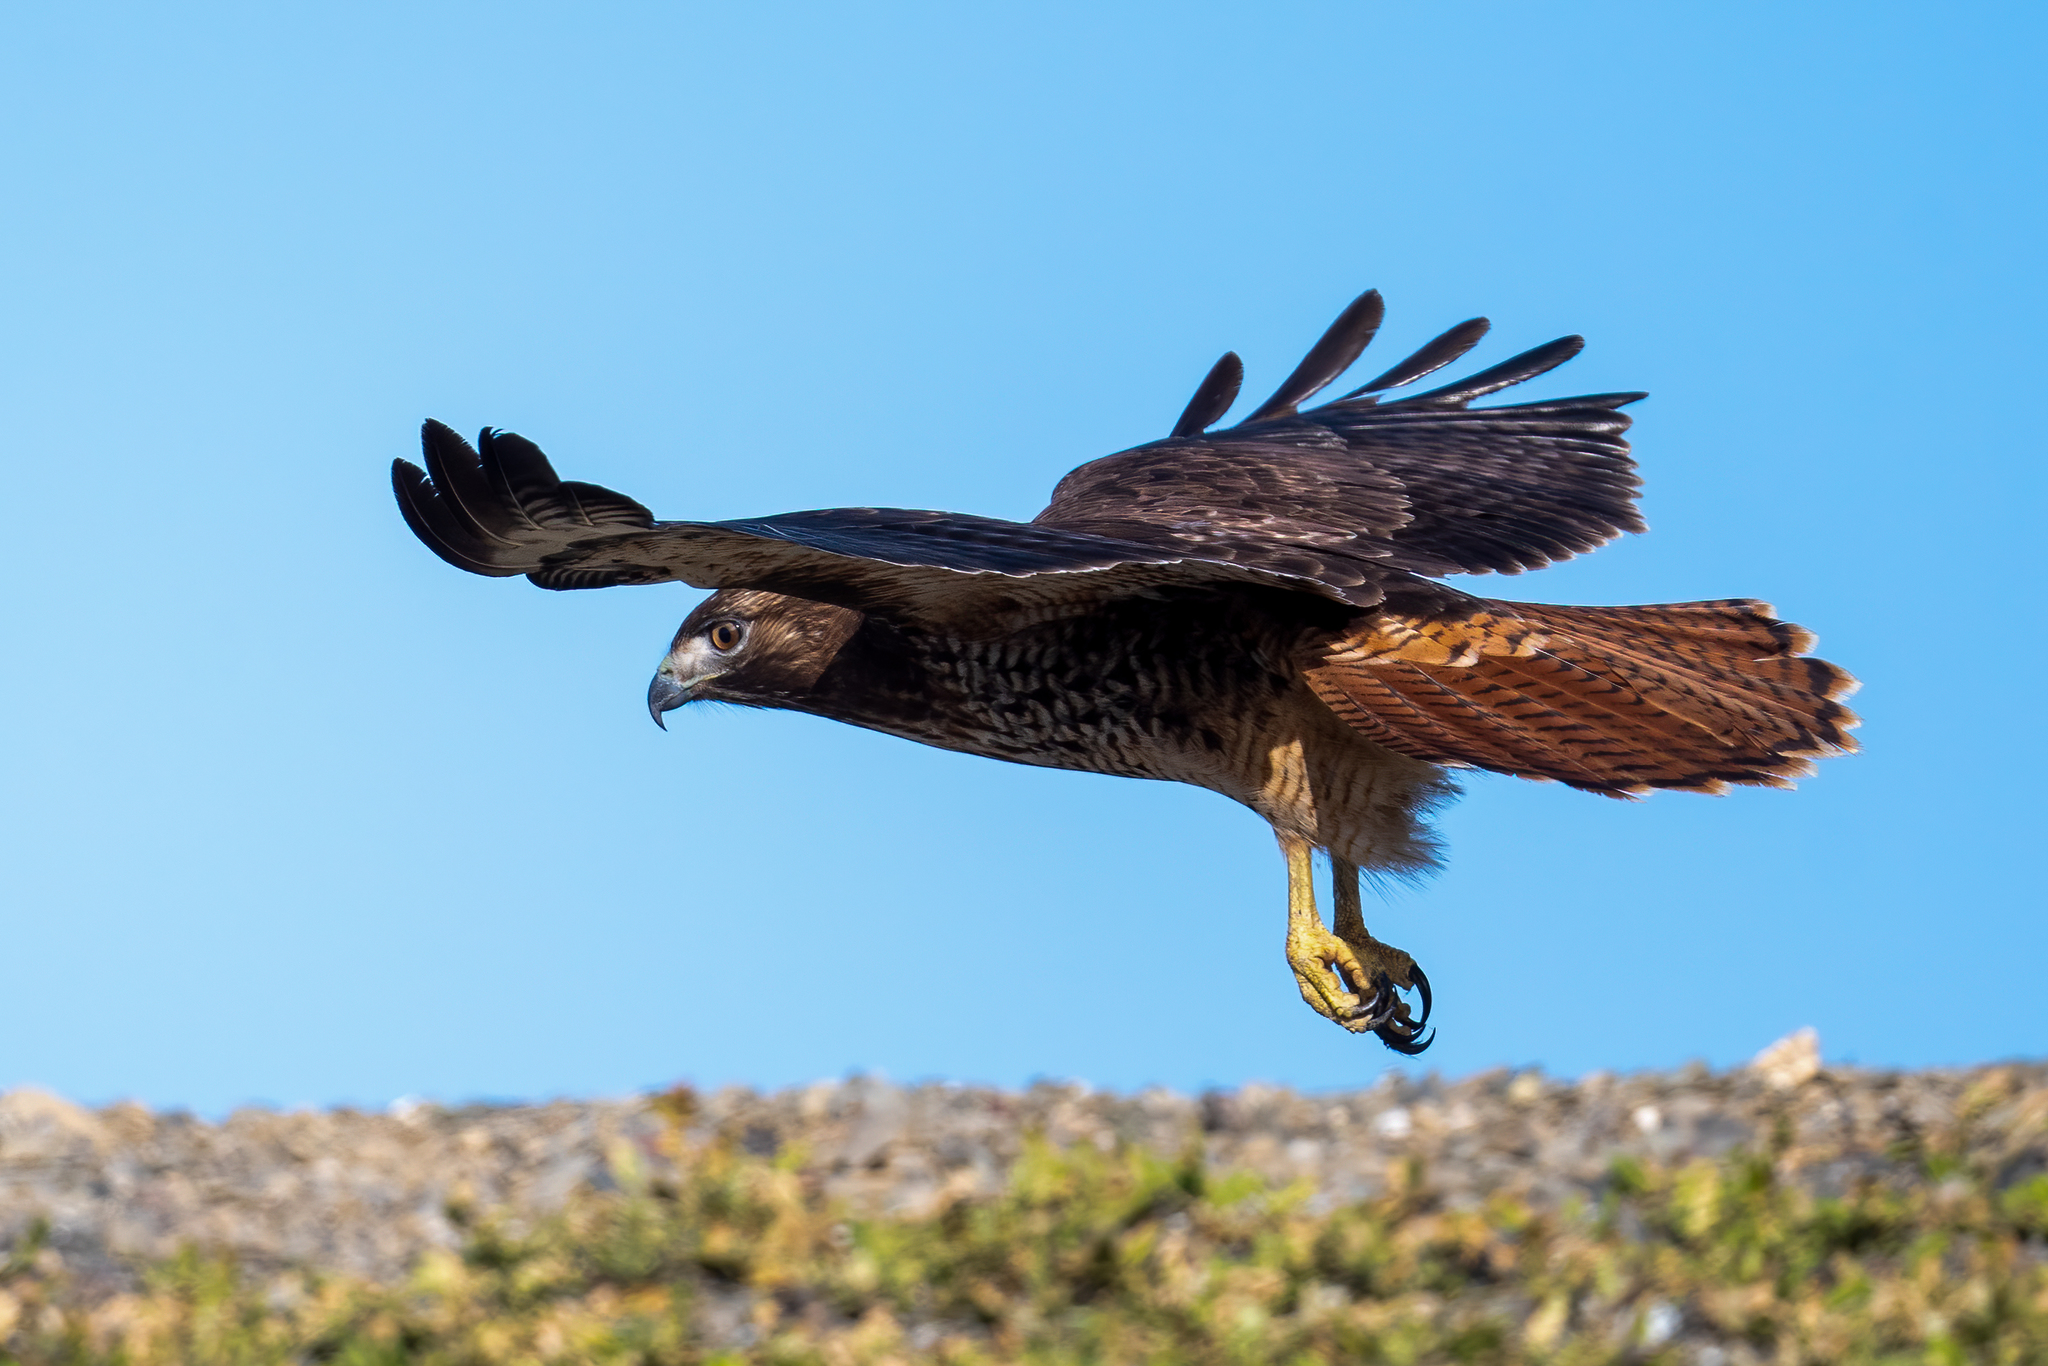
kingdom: Animalia
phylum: Chordata
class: Aves
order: Accipitriformes
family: Accipitridae
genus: Buteo
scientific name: Buteo jamaicensis
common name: Red-tailed hawk
